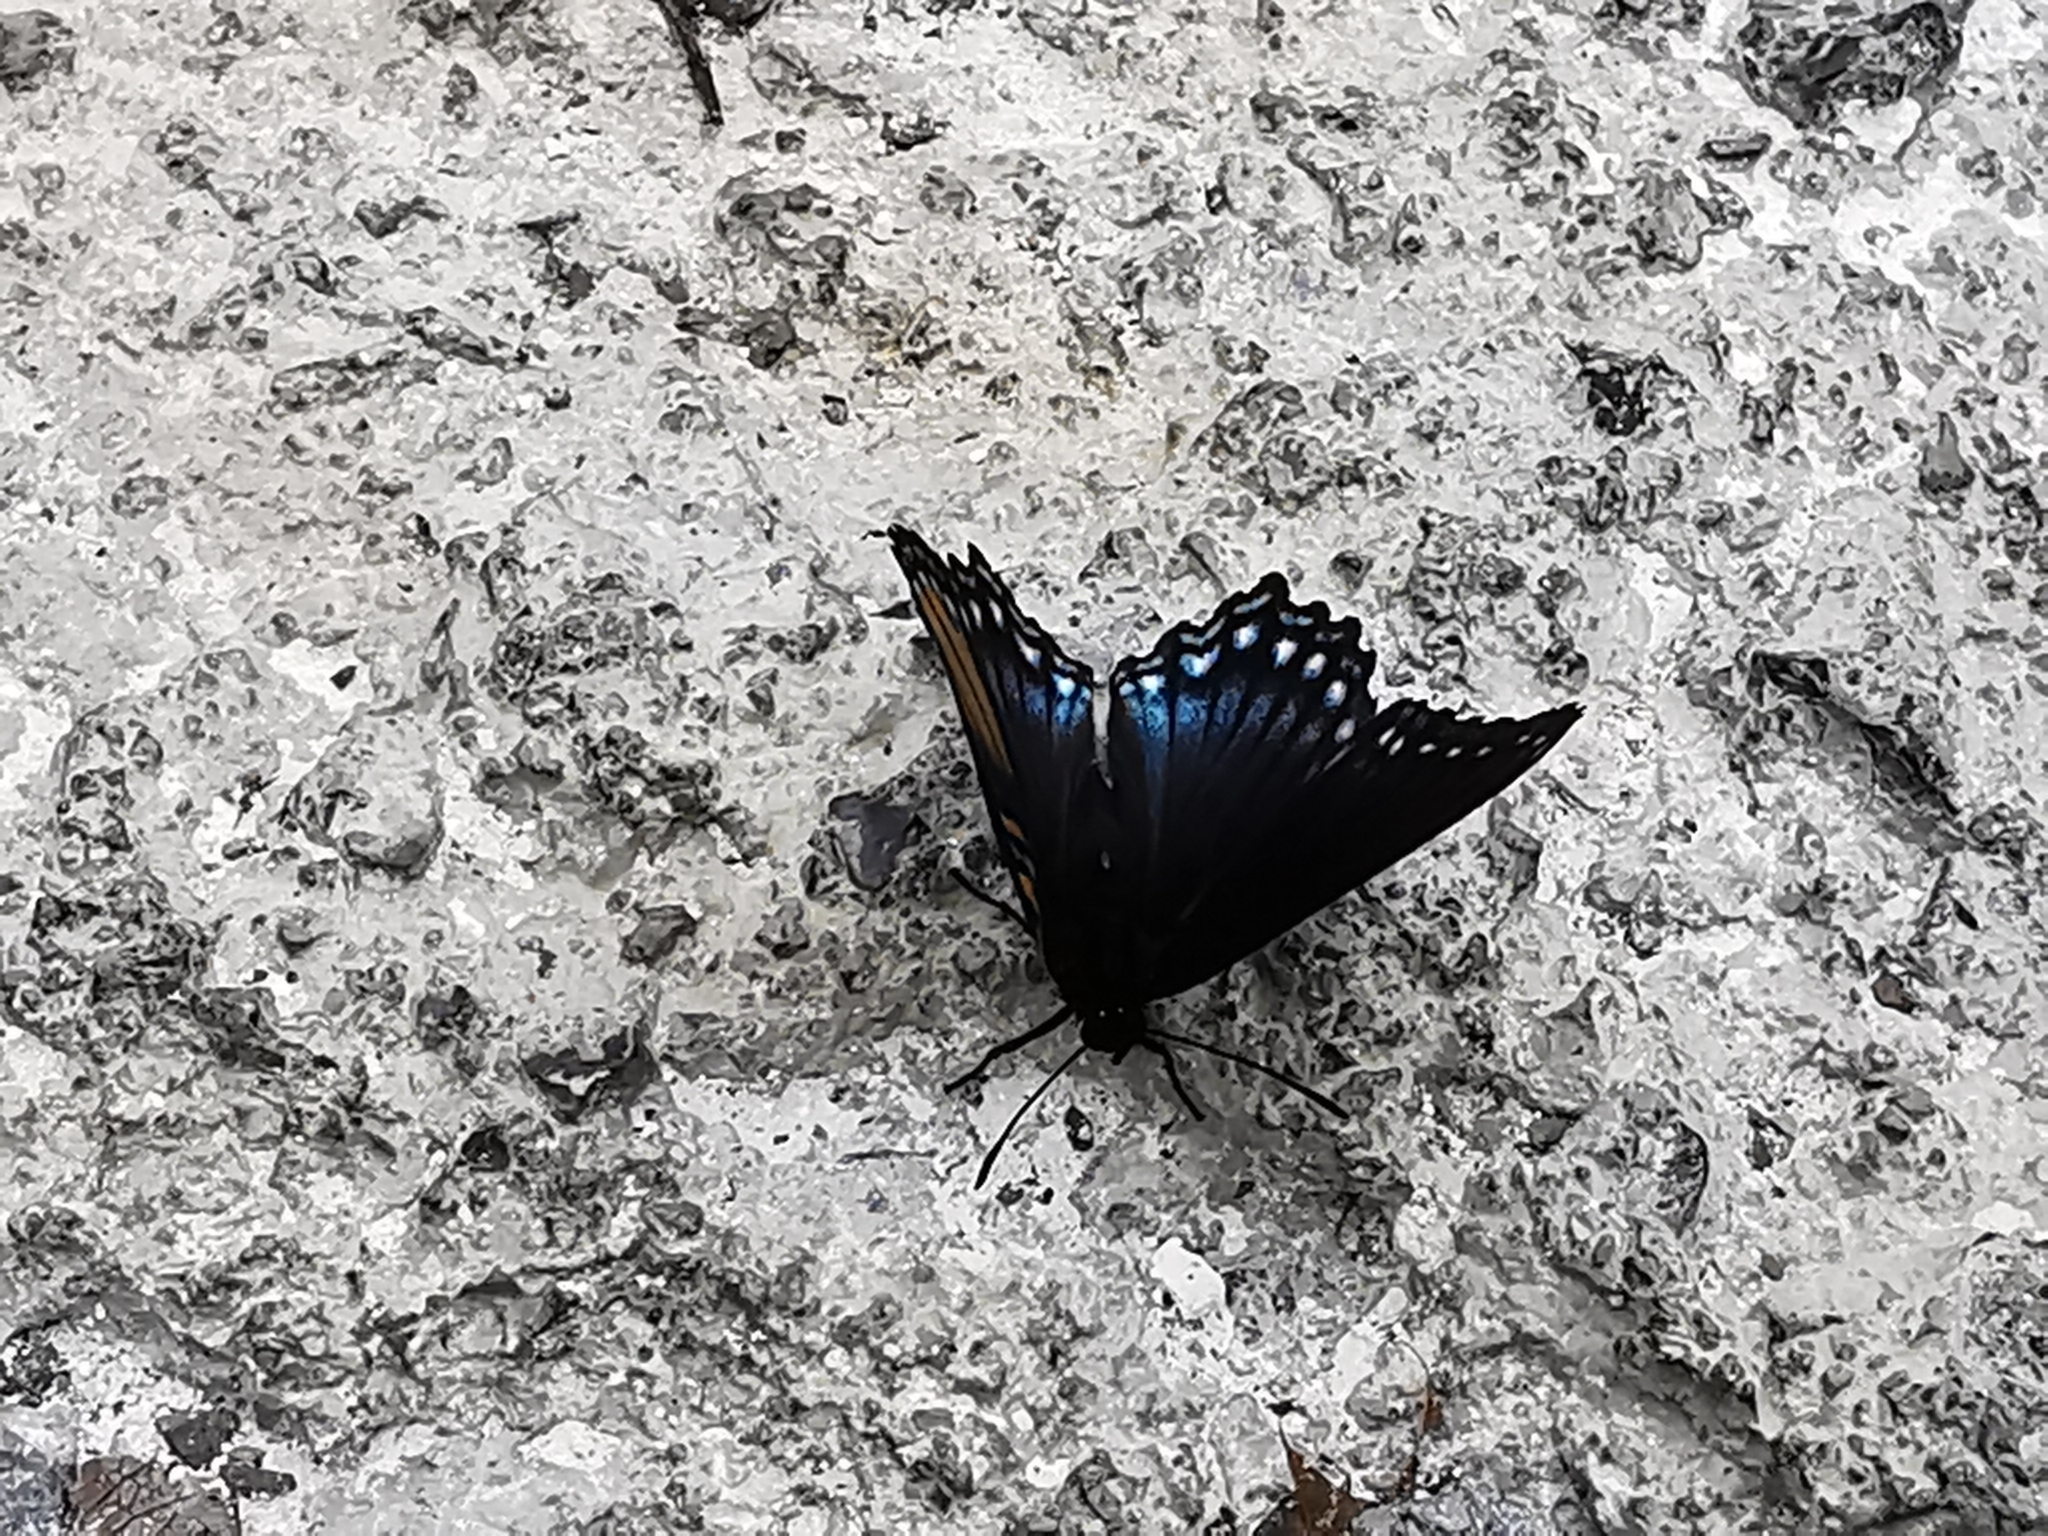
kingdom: Animalia
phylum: Arthropoda
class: Insecta
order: Lepidoptera
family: Nymphalidae
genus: Limenitis
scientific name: Limenitis arthemis
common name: Red-spotted admiral
